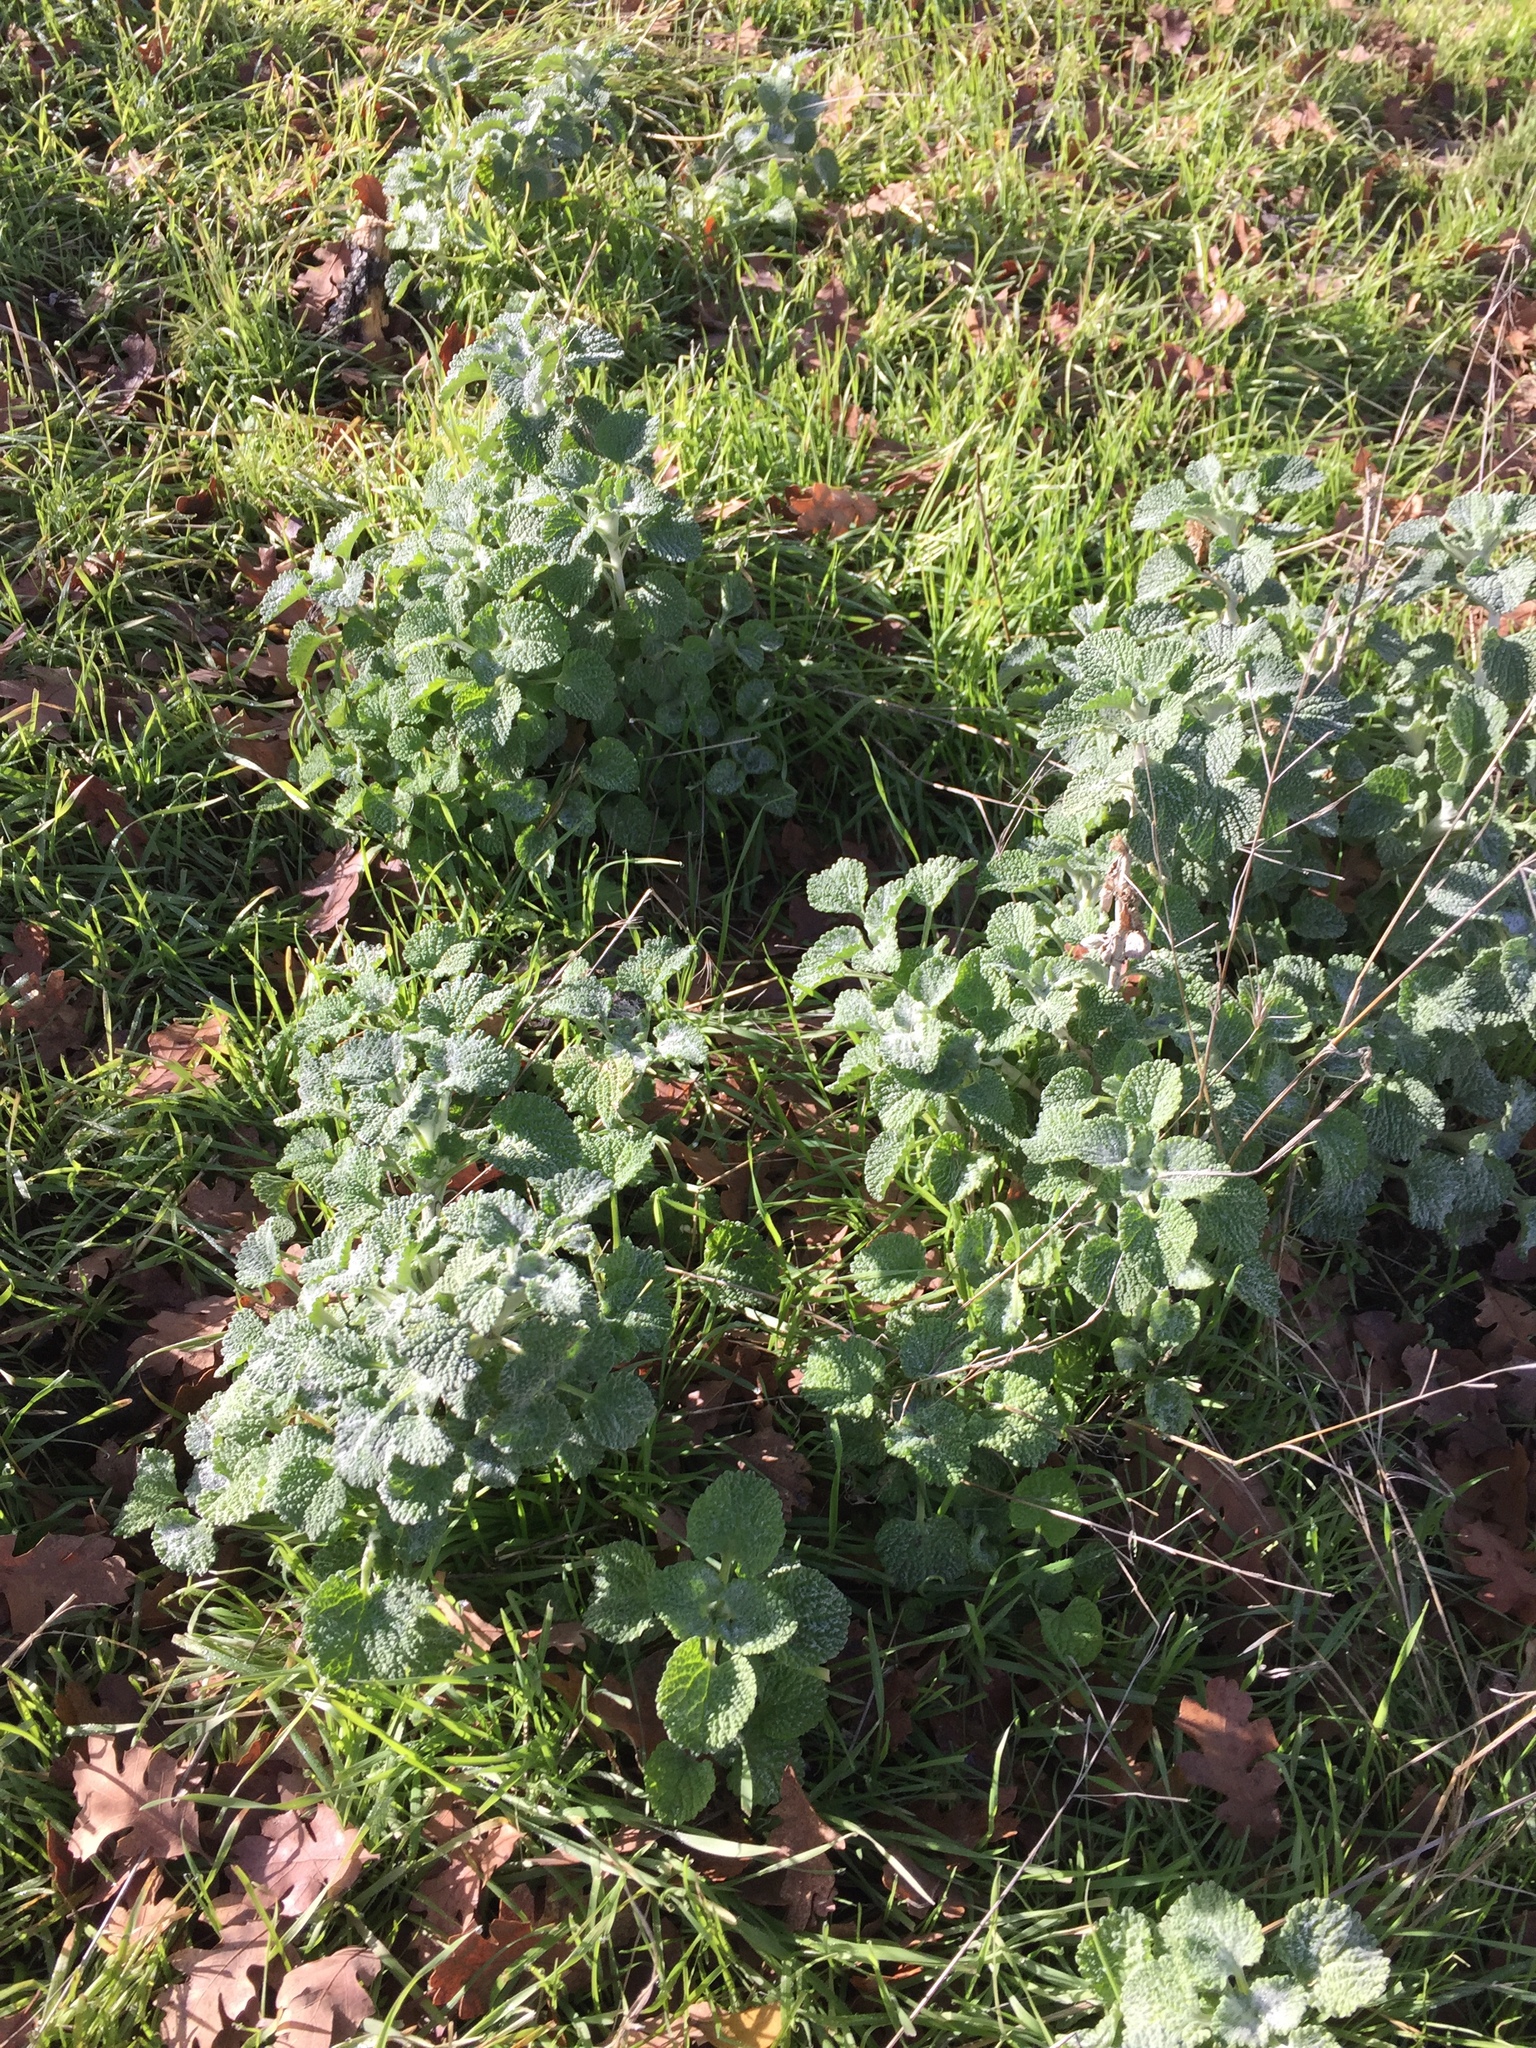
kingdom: Plantae
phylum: Tracheophyta
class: Magnoliopsida
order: Lamiales
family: Lamiaceae
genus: Marrubium
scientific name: Marrubium vulgare
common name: Horehound
